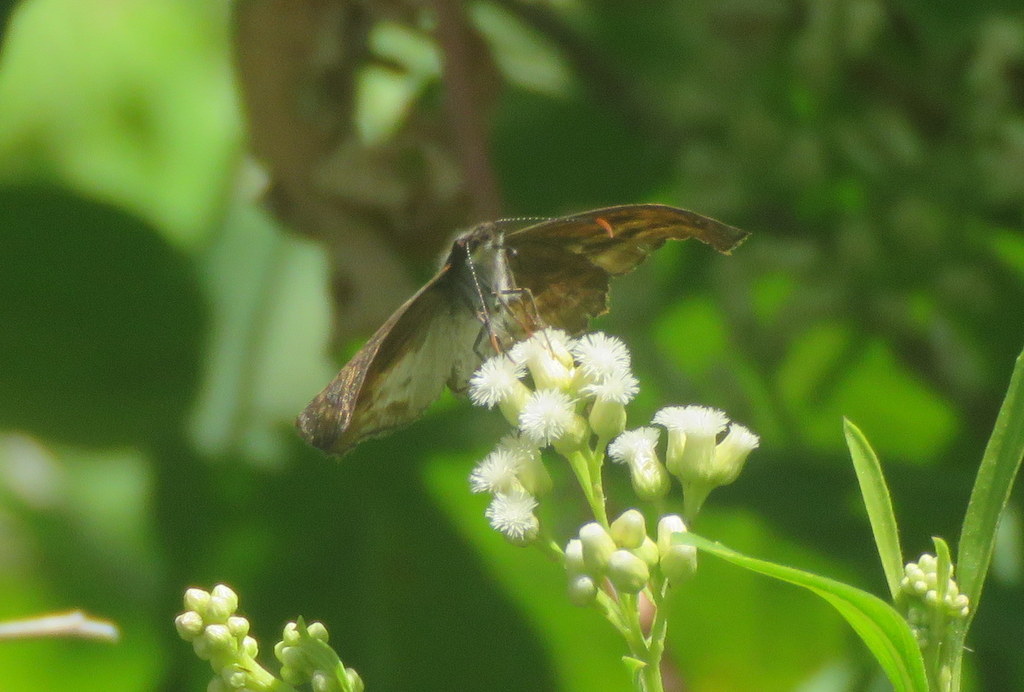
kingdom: Animalia
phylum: Arthropoda
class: Insecta
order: Lepidoptera
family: Hesperiidae
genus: Theagenes
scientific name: Theagenes dichrous
